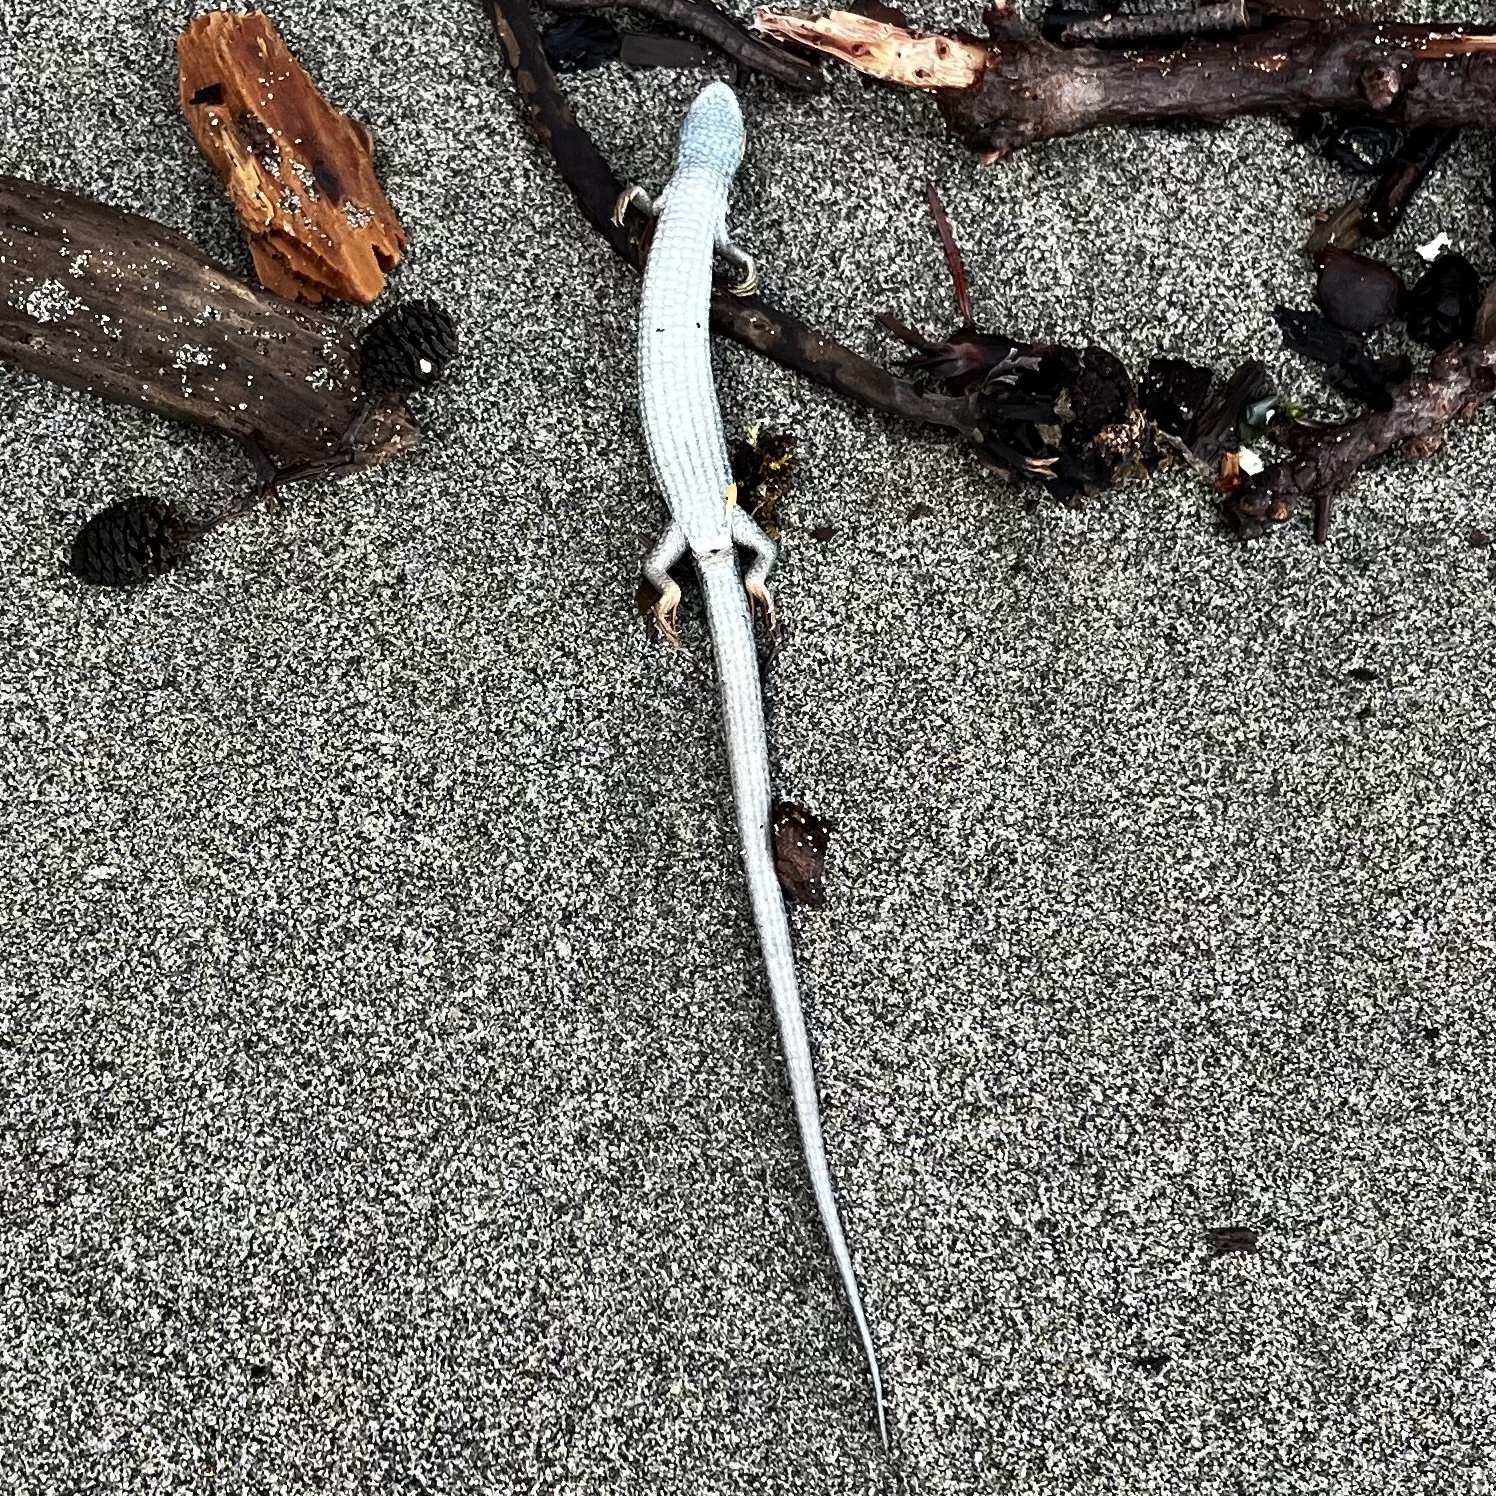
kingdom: Animalia
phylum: Chordata
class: Squamata
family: Anguidae
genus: Elgaria
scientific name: Elgaria coerulea
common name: Northern alligator lizard
